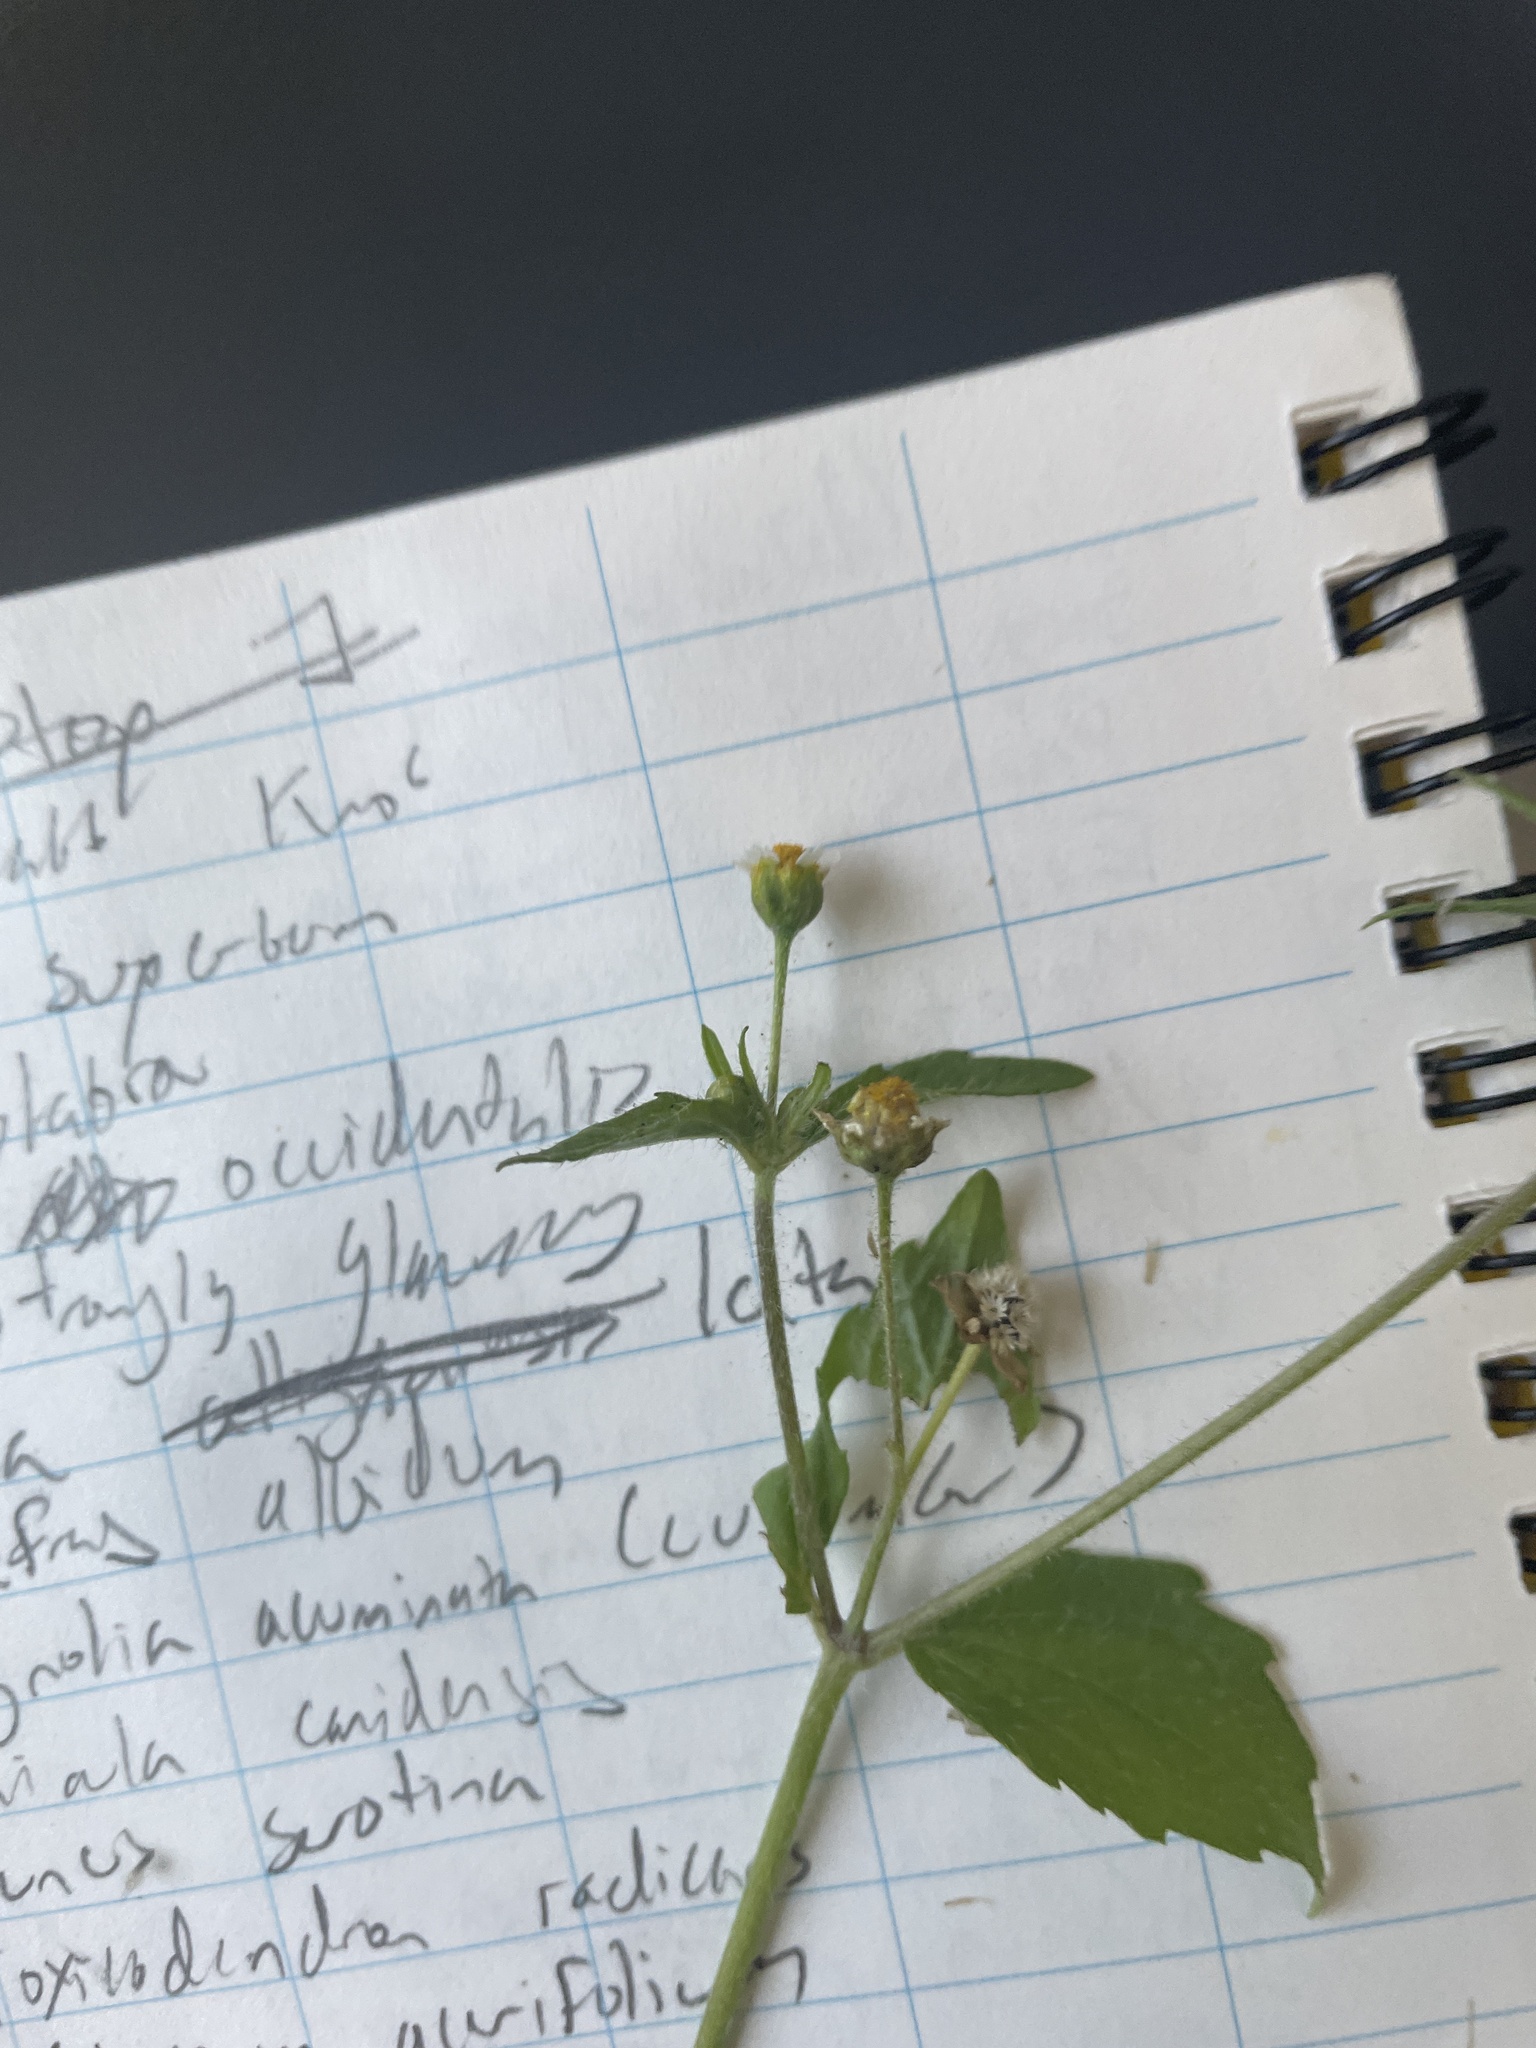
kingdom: Plantae
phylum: Tracheophyta
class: Magnoliopsida
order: Asterales
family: Asteraceae
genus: Galinsoga
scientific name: Galinsoga quadriradiata
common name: Shaggy soldier
